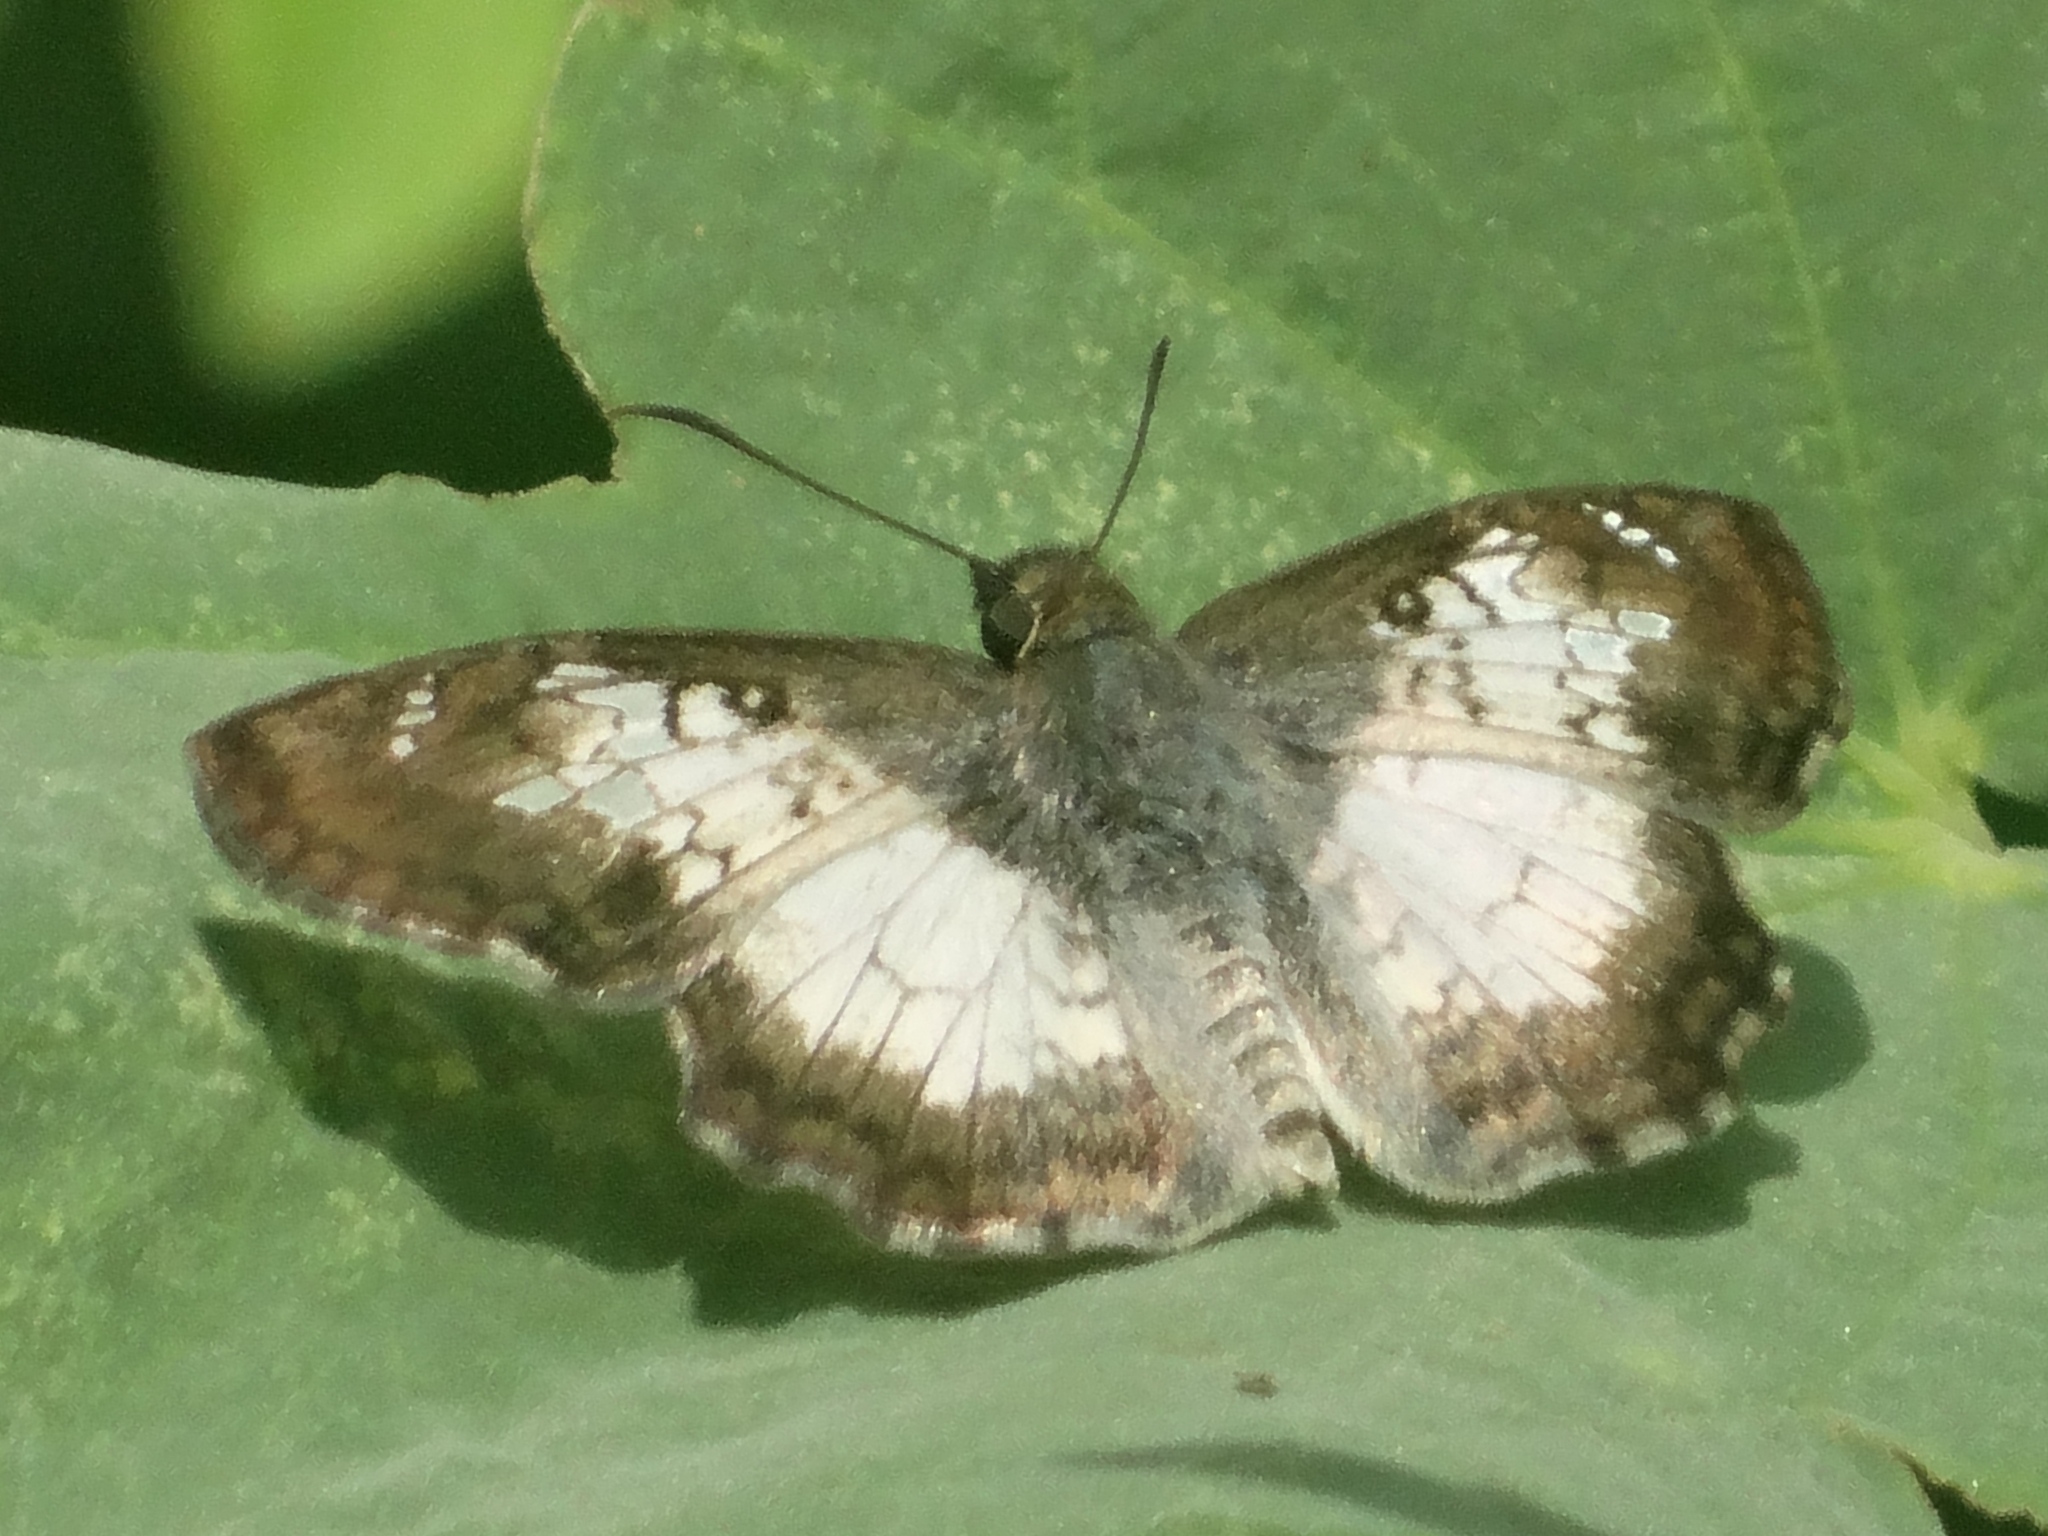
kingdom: Animalia
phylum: Arthropoda
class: Insecta
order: Lepidoptera
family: Hesperiidae
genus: Antigonus
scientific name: Antigonus emorsa
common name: White spurwing
